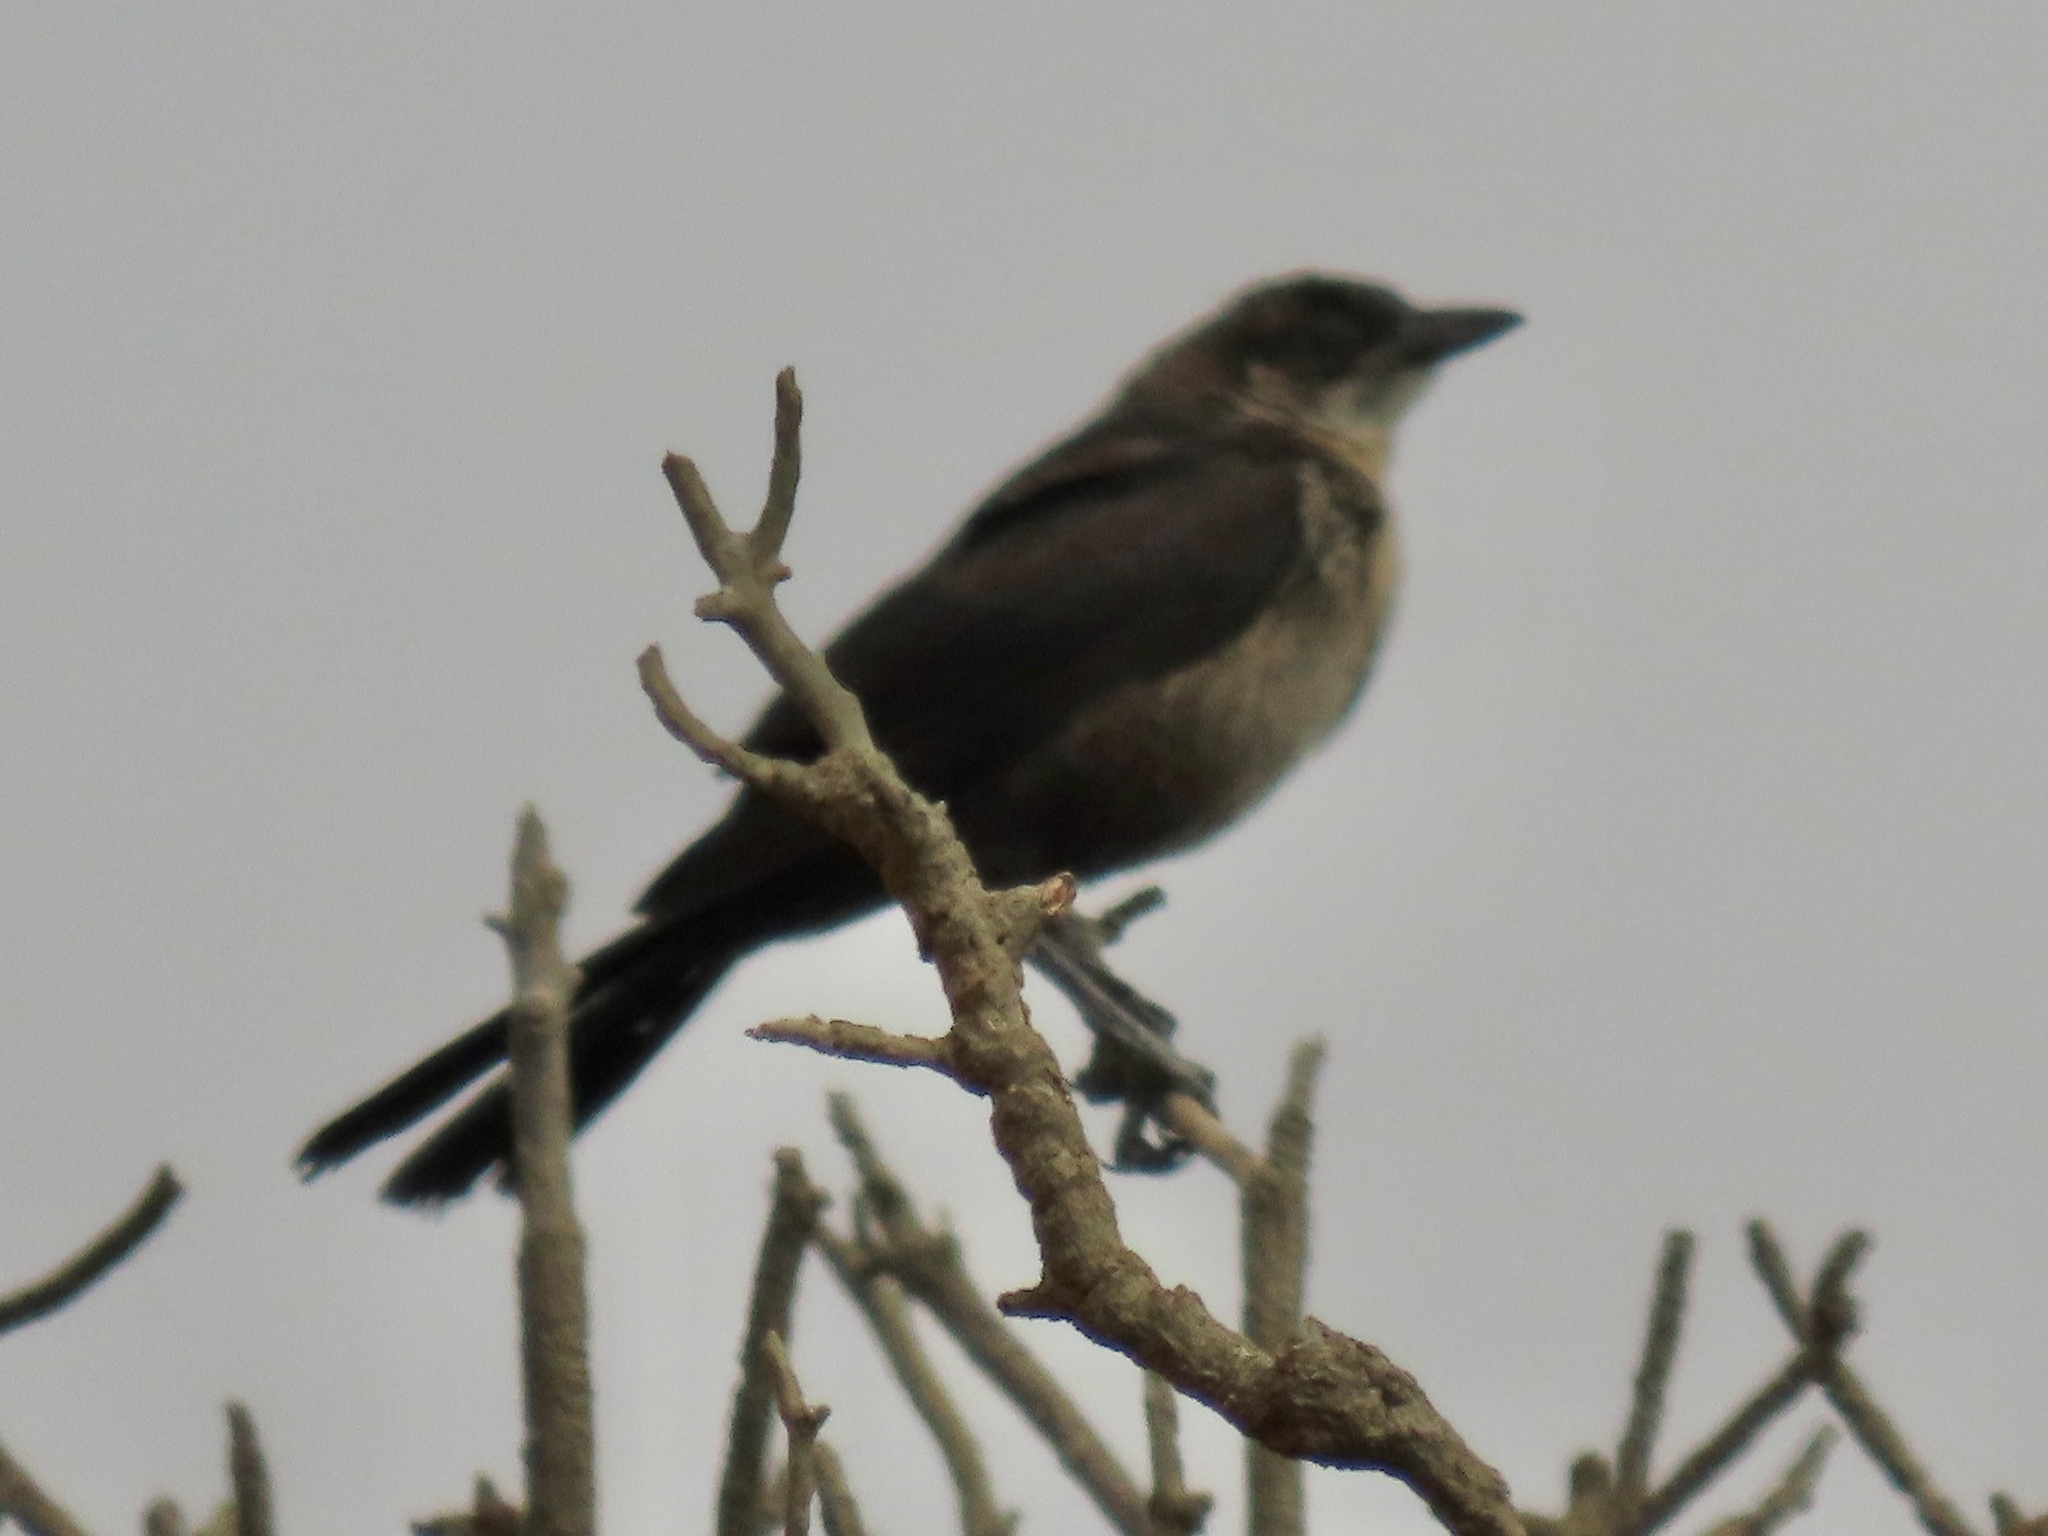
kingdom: Animalia
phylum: Chordata
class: Aves
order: Passeriformes
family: Icteridae
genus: Quiscalus
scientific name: Quiscalus mexicanus
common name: Great-tailed grackle
